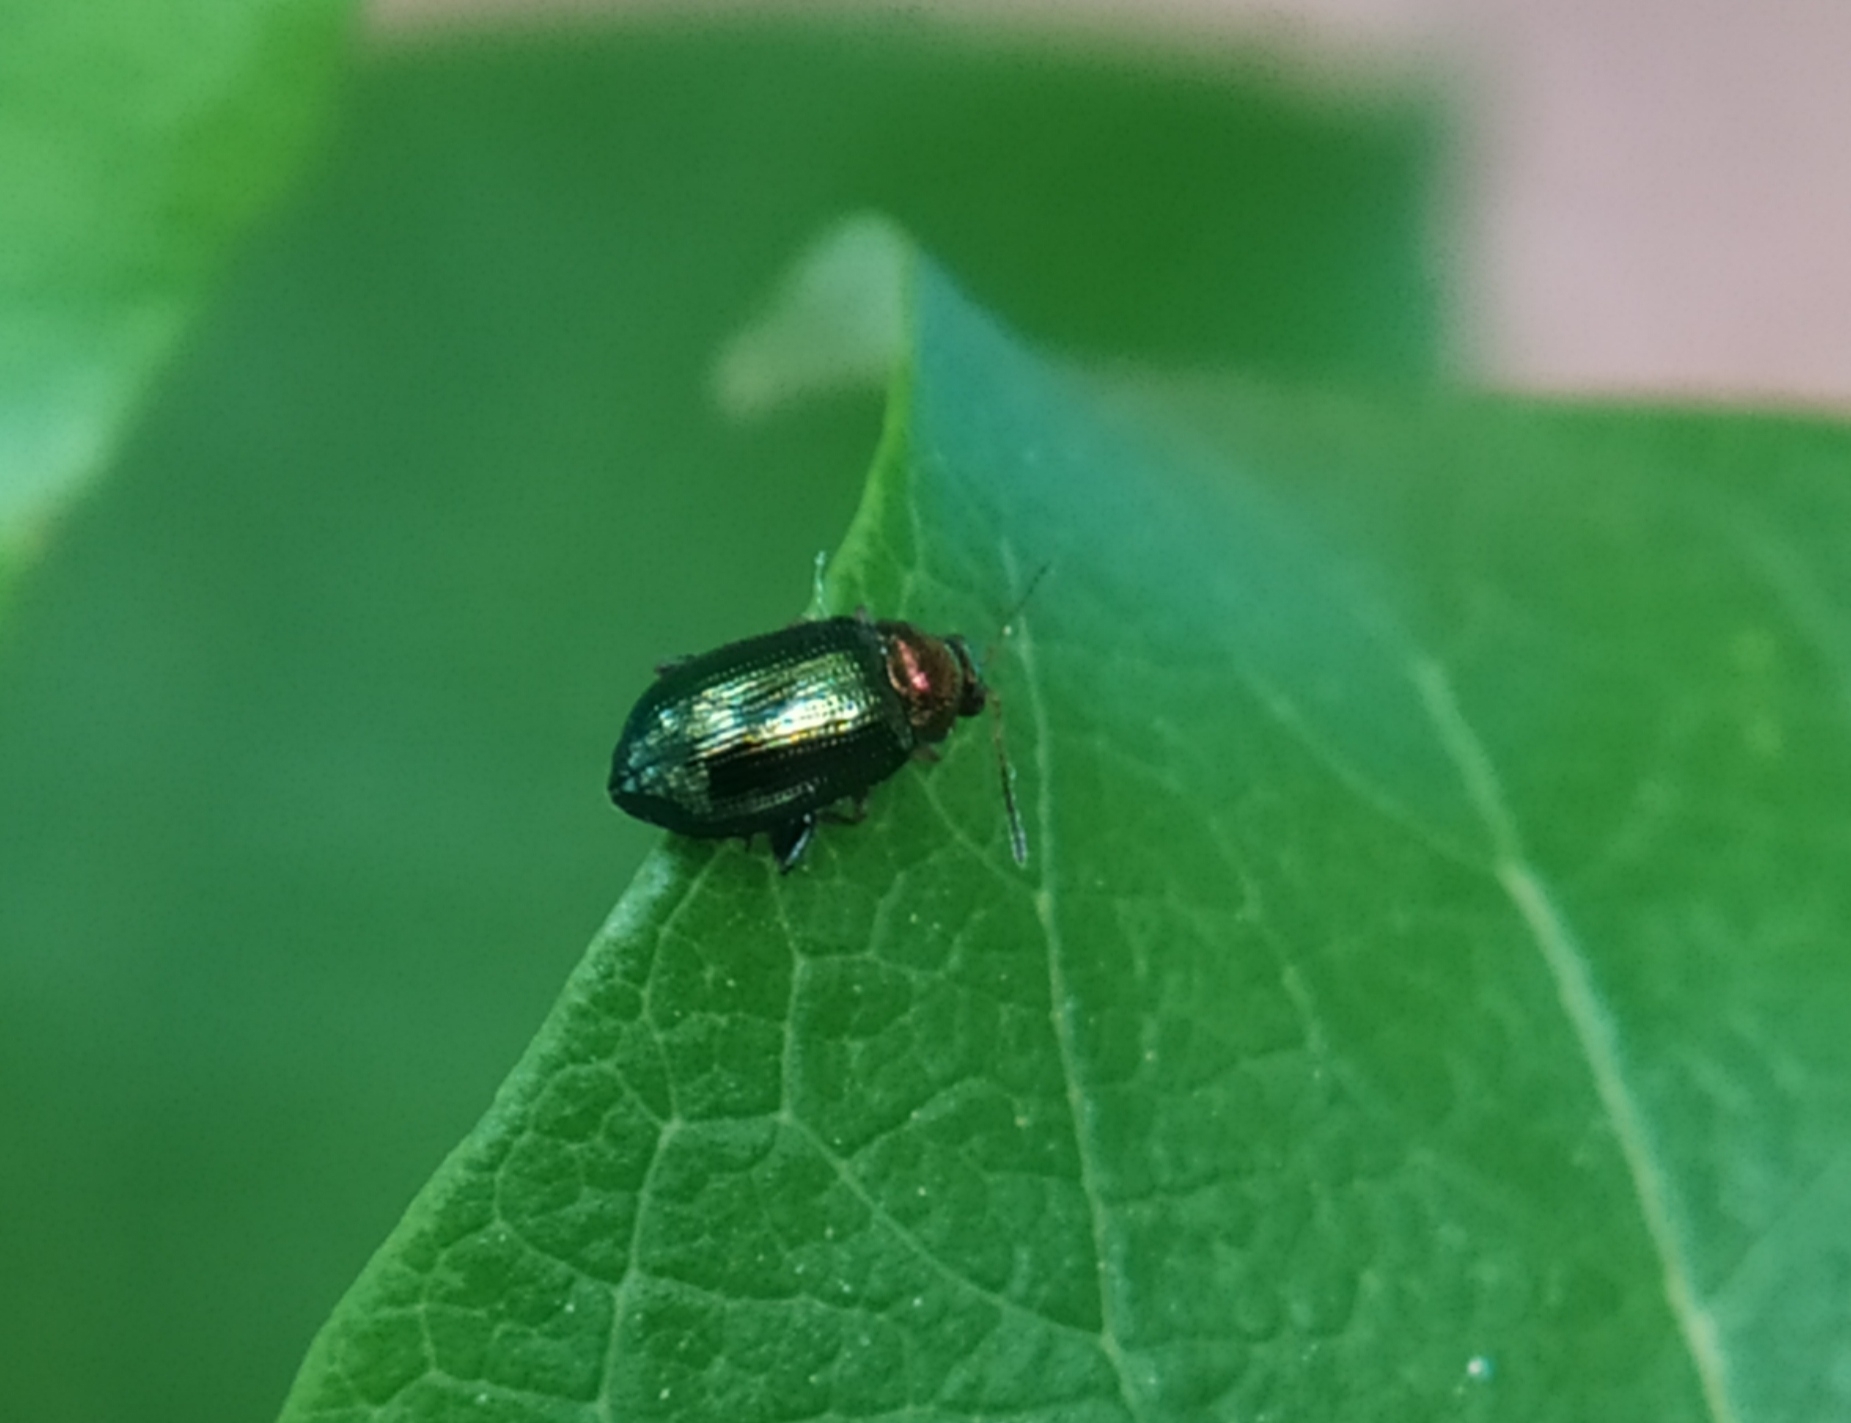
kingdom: Animalia
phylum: Arthropoda
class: Insecta
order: Coleoptera
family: Chrysomelidae
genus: Crepidodera
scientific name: Crepidodera aurata
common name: Willow flea beetle
